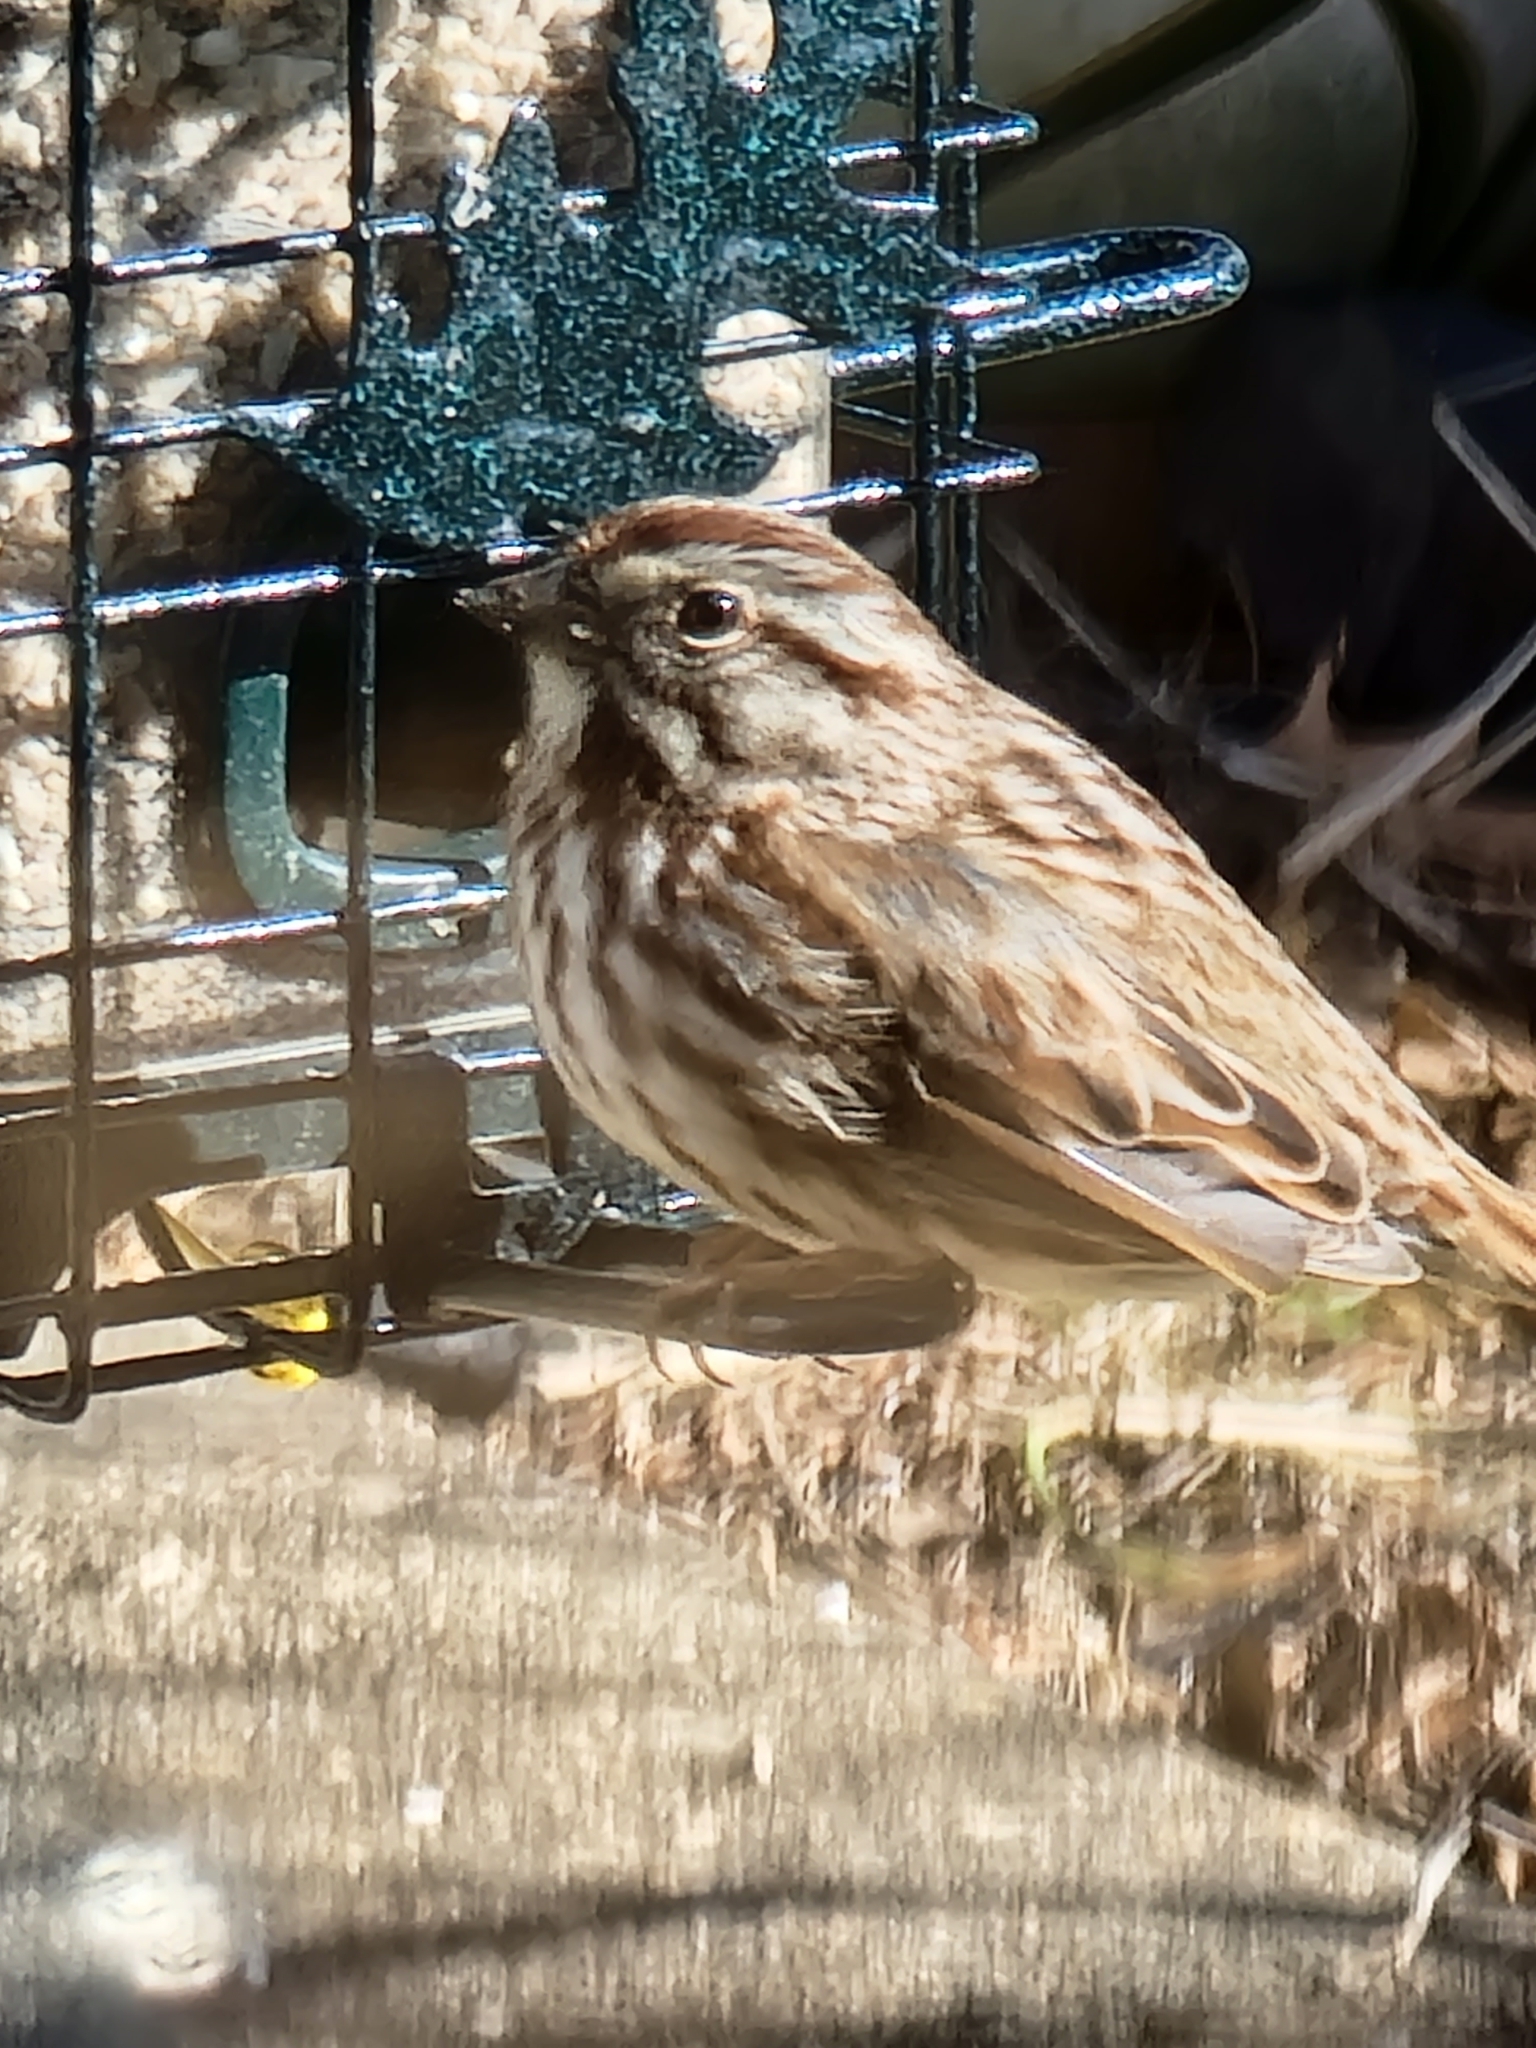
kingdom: Animalia
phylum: Chordata
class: Aves
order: Passeriformes
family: Passerellidae
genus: Melospiza
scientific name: Melospiza melodia
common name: Song sparrow
